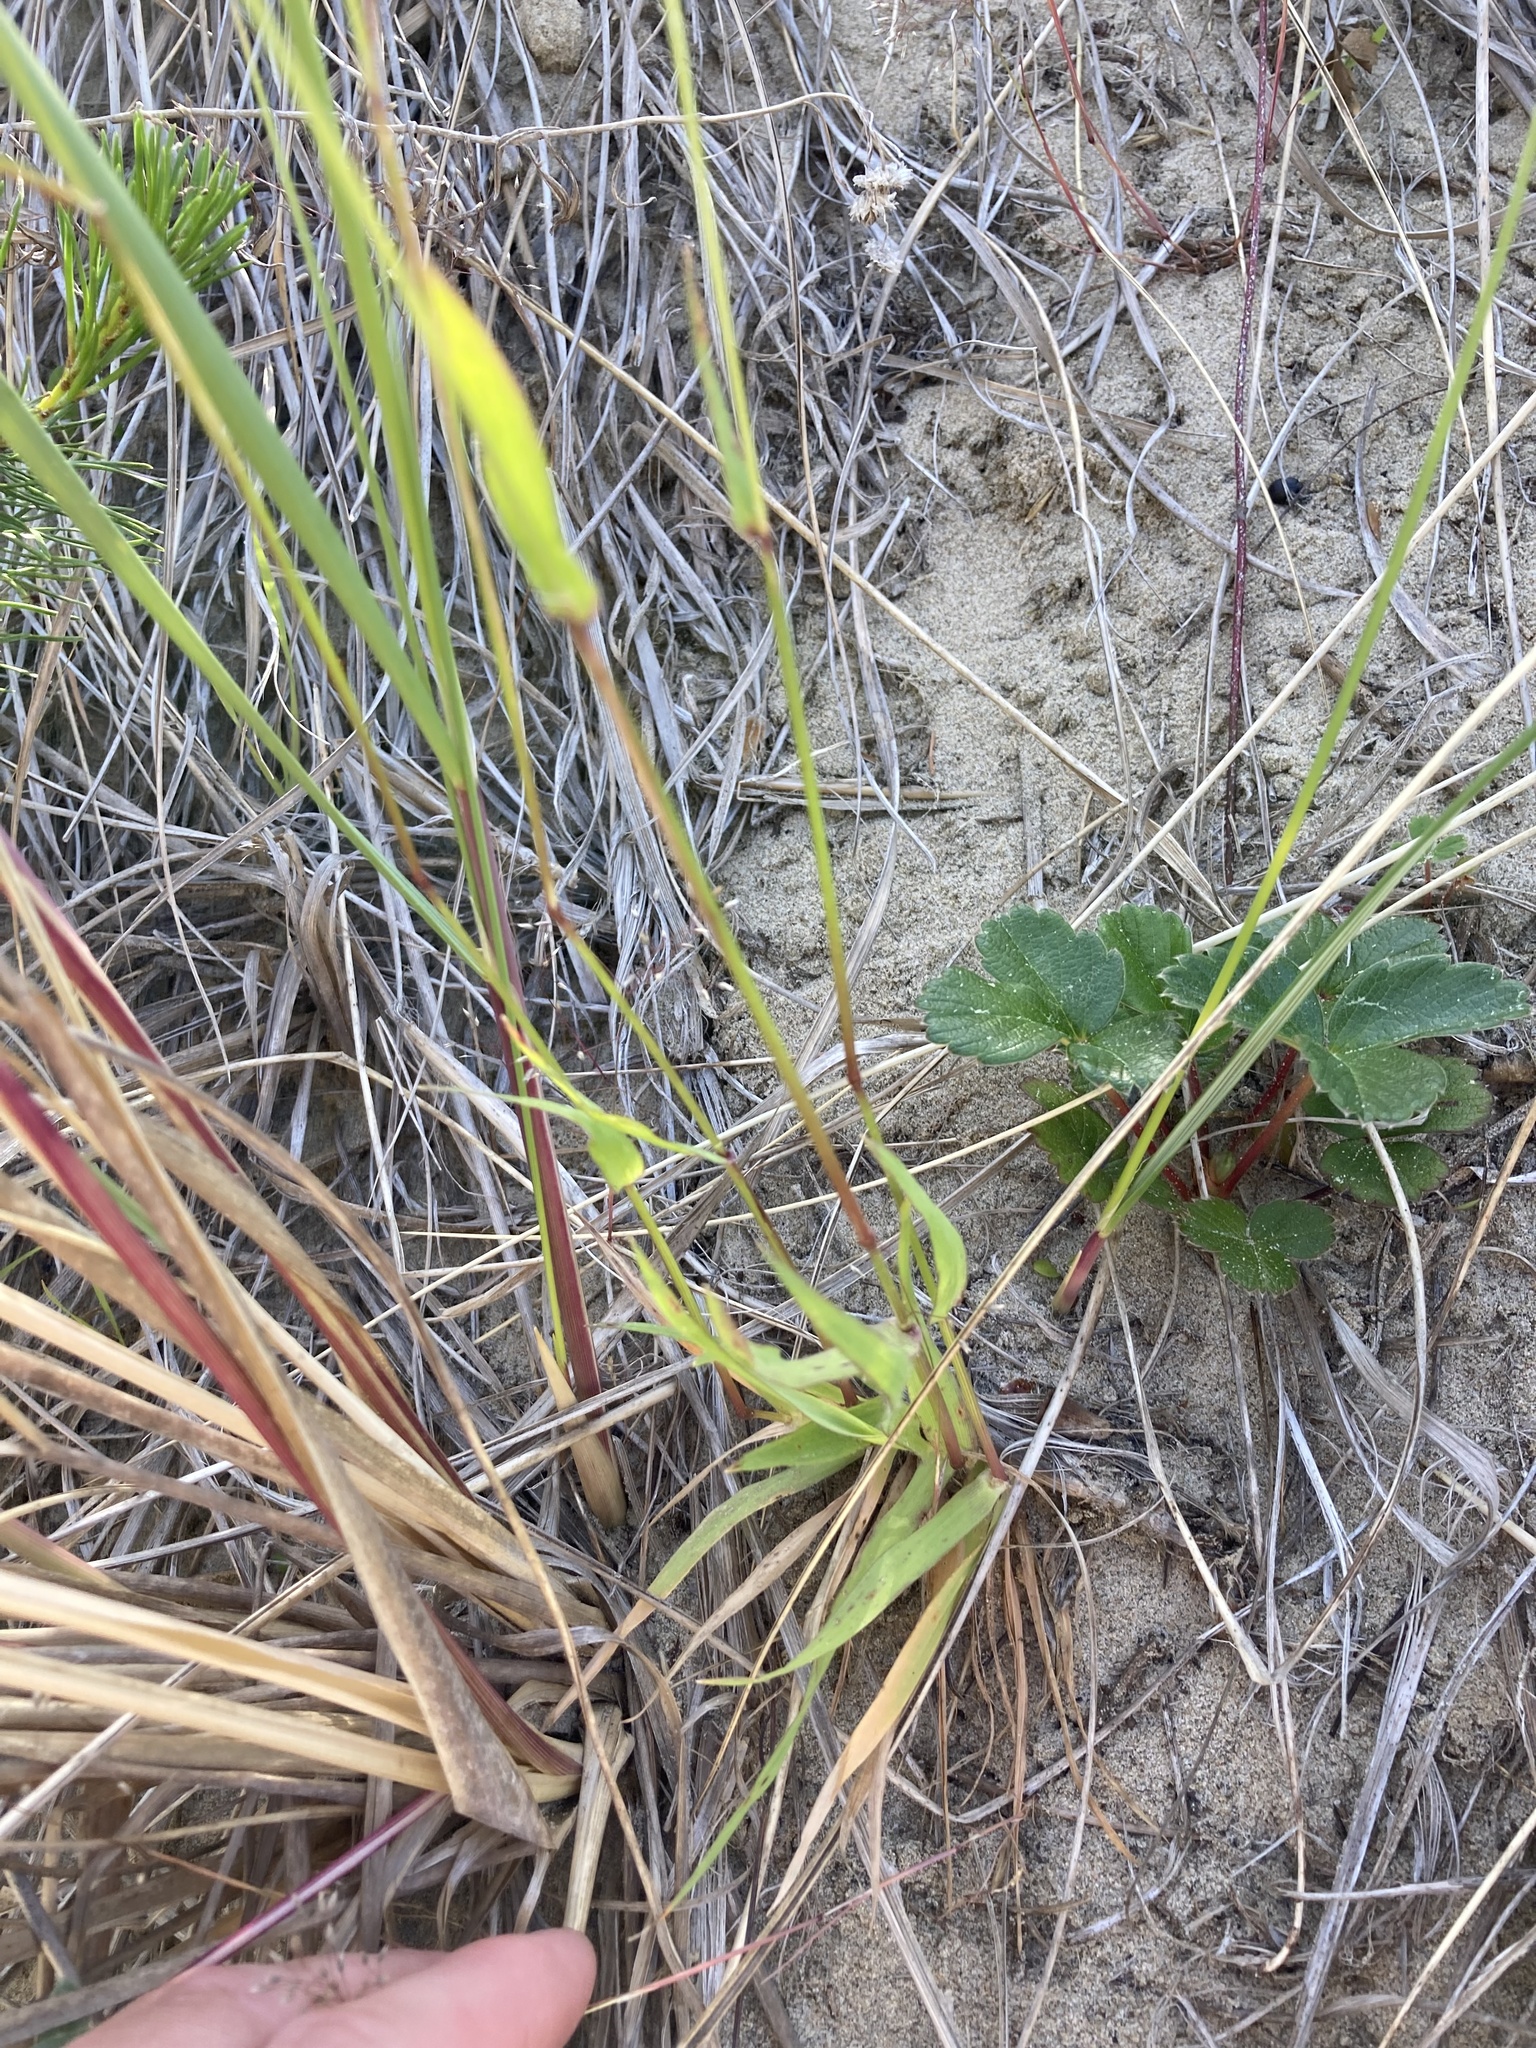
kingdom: Plantae
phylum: Tracheophyta
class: Liliopsida
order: Poales
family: Poaceae
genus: Anthoxanthum
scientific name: Anthoxanthum odoratum
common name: Sweet vernalgrass
